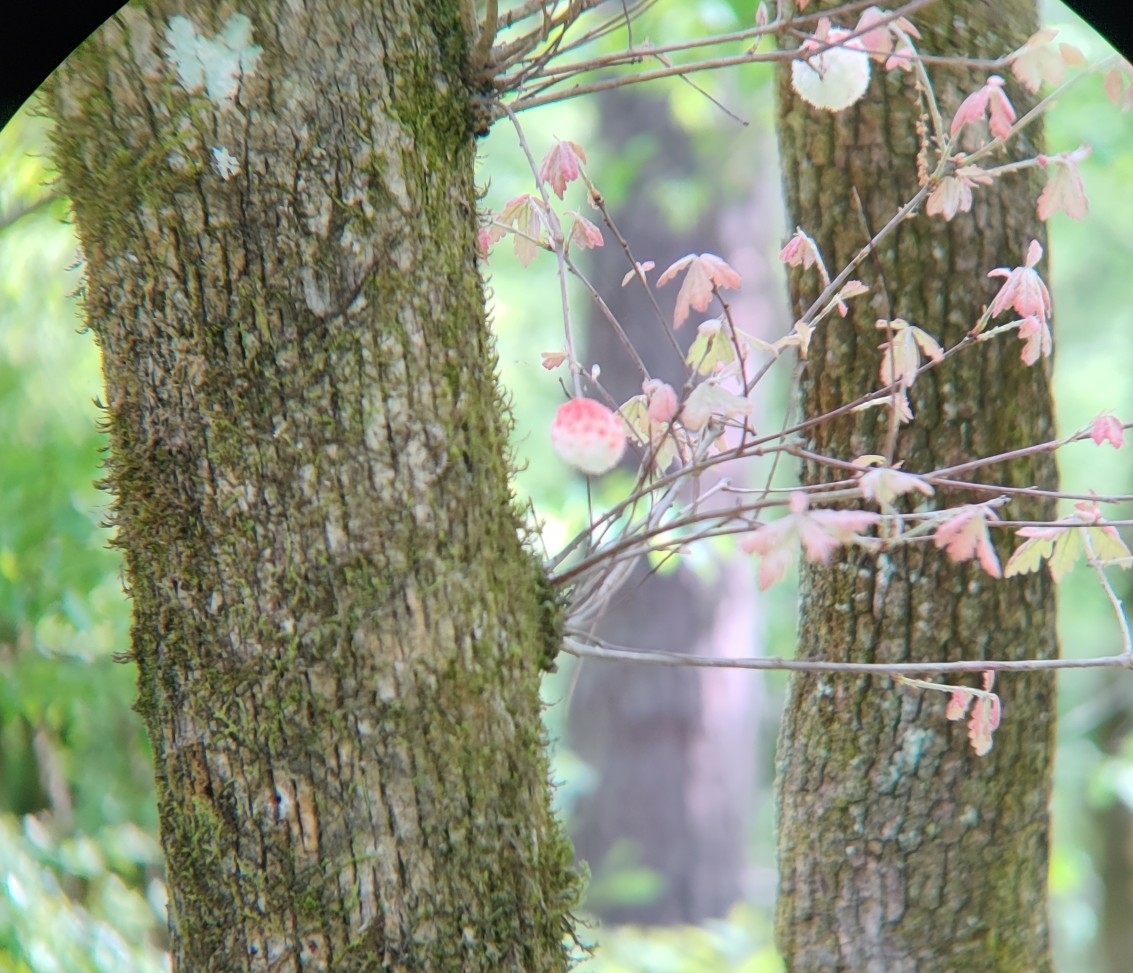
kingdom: Animalia
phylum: Arthropoda
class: Insecta
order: Hymenoptera
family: Cynipidae
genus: Callirhytis
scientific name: Callirhytis
